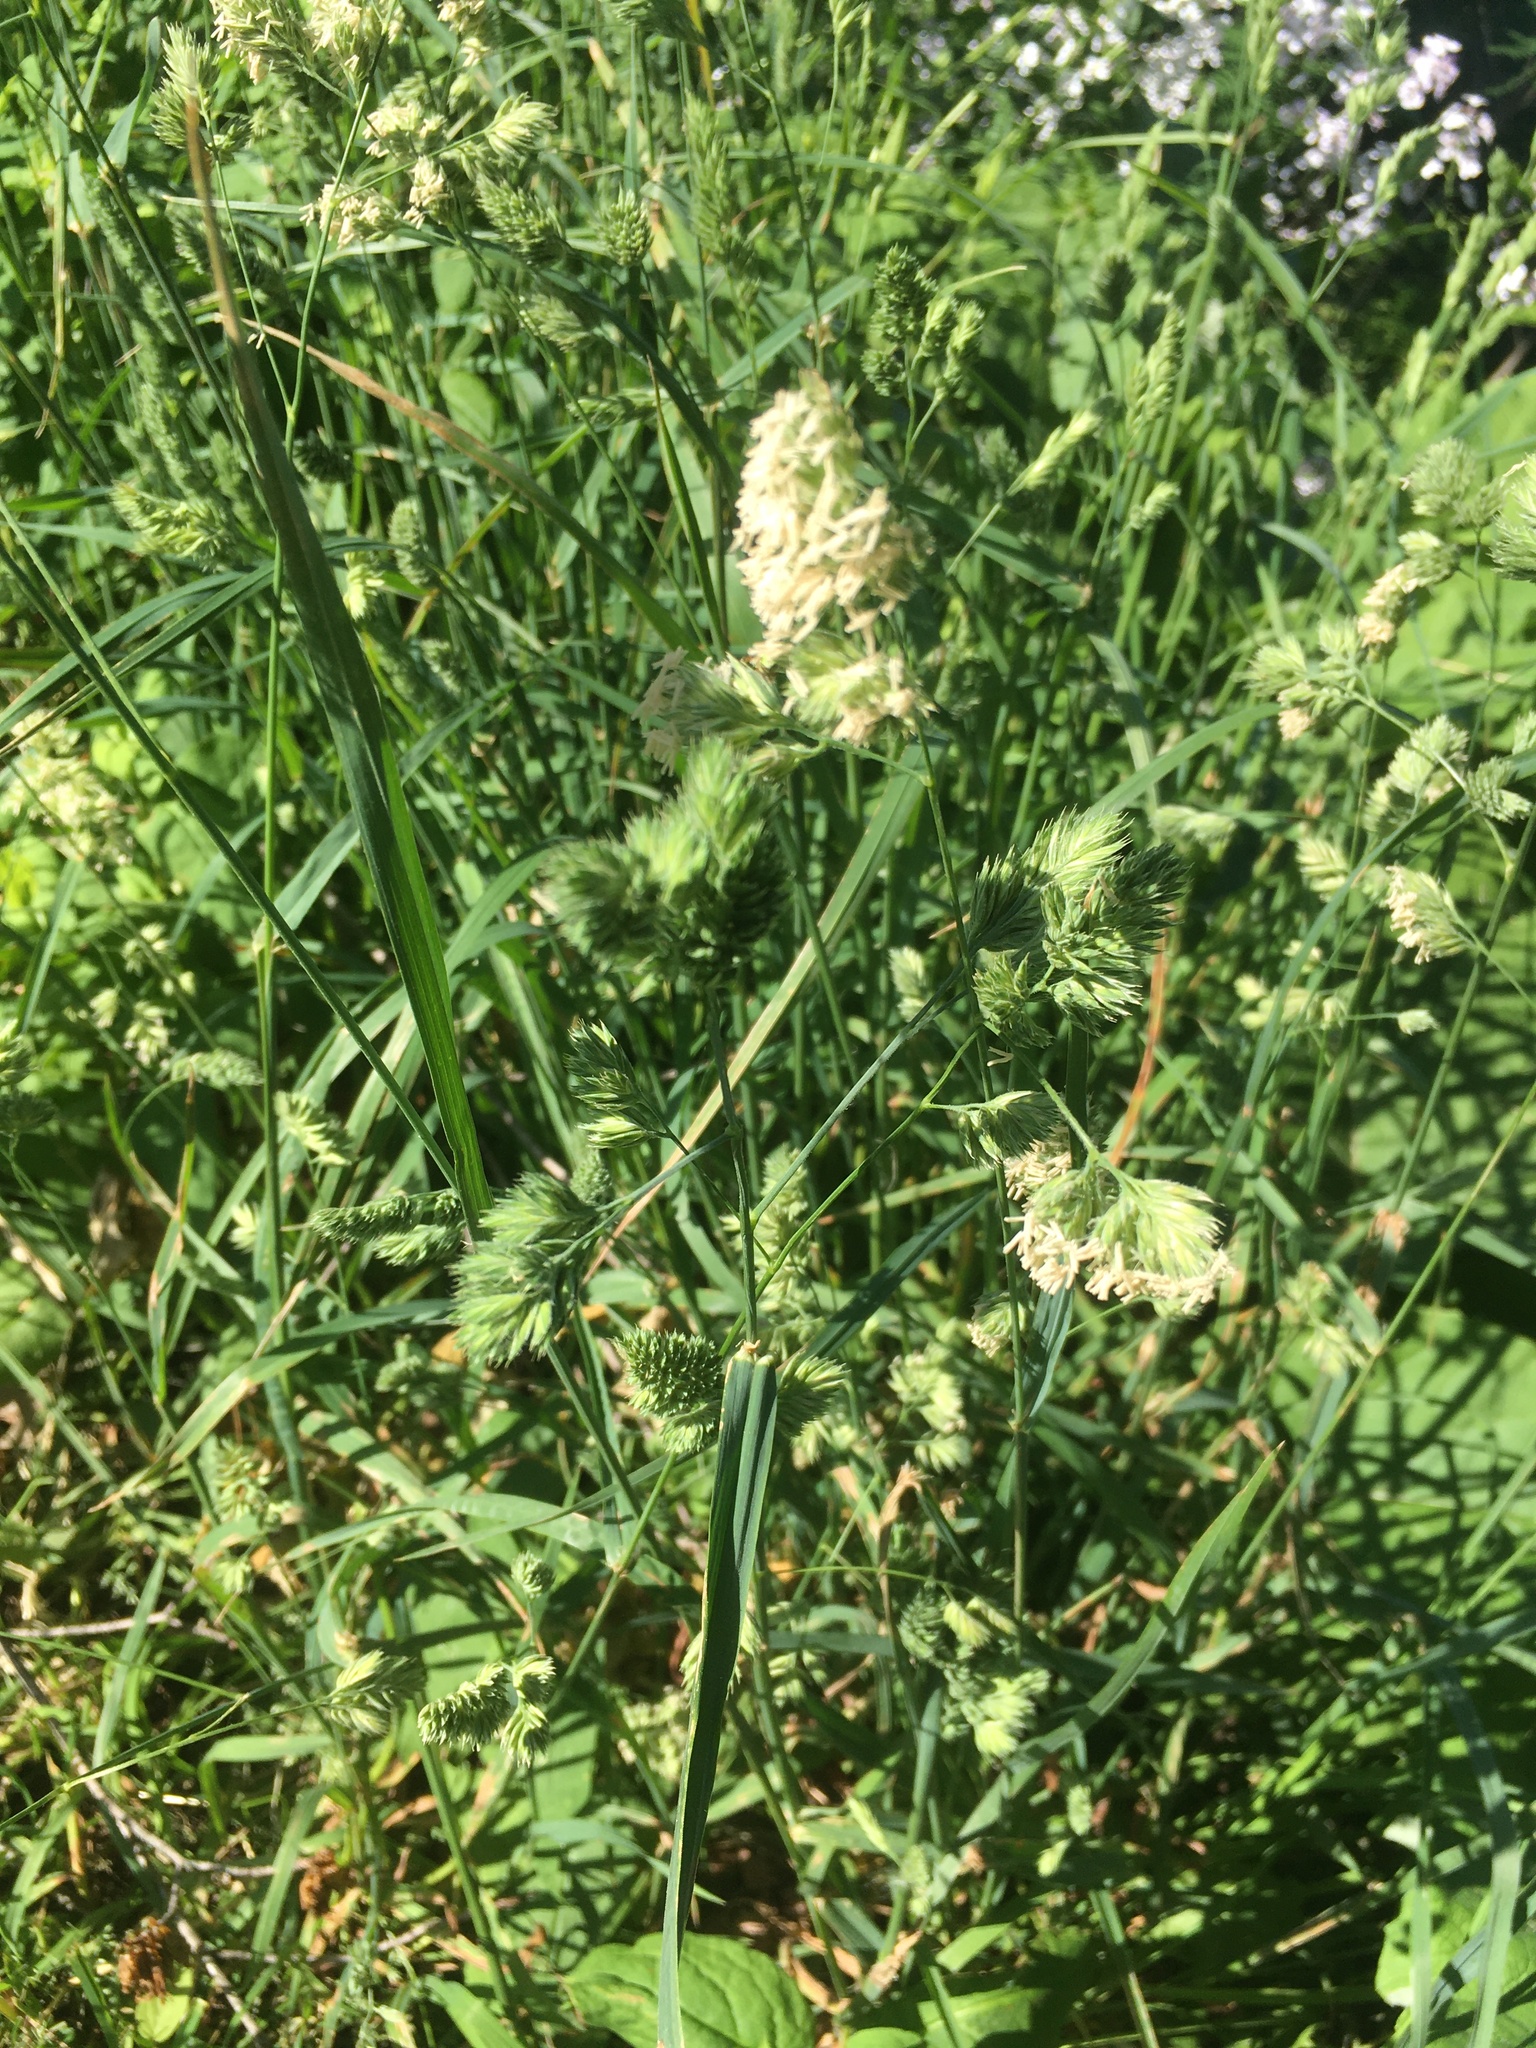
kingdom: Plantae
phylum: Tracheophyta
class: Liliopsida
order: Poales
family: Poaceae
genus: Dactylis
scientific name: Dactylis glomerata
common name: Orchardgrass
